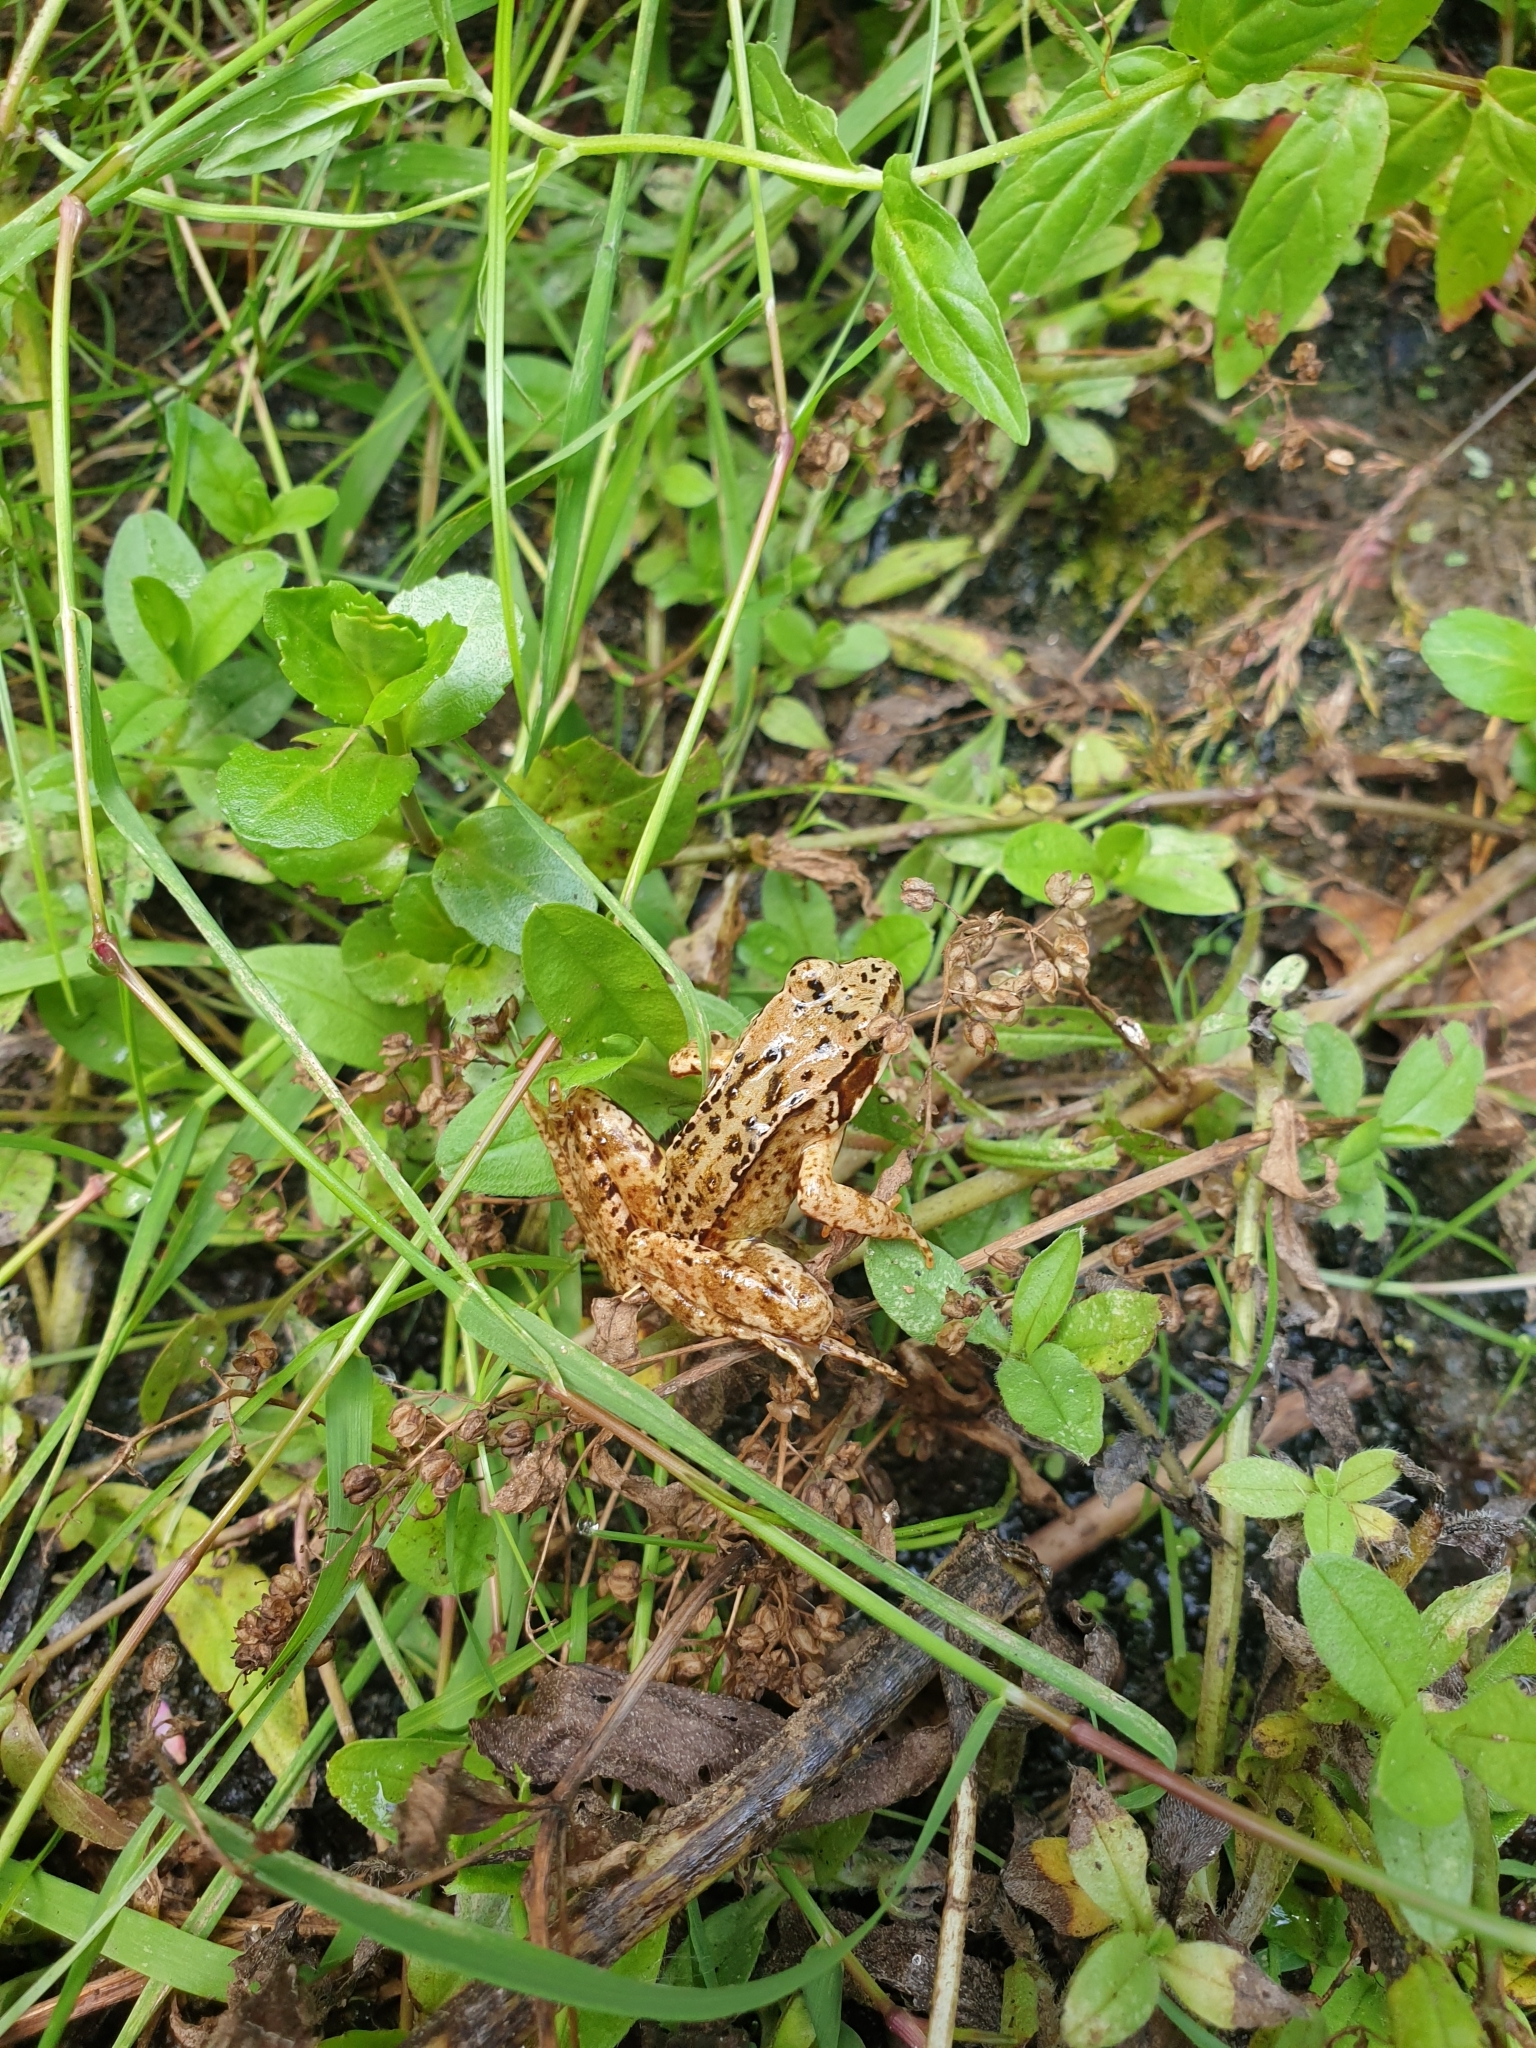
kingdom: Animalia
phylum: Chordata
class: Amphibia
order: Anura
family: Ranidae
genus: Rana
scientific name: Rana temporaria
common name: Common frog
